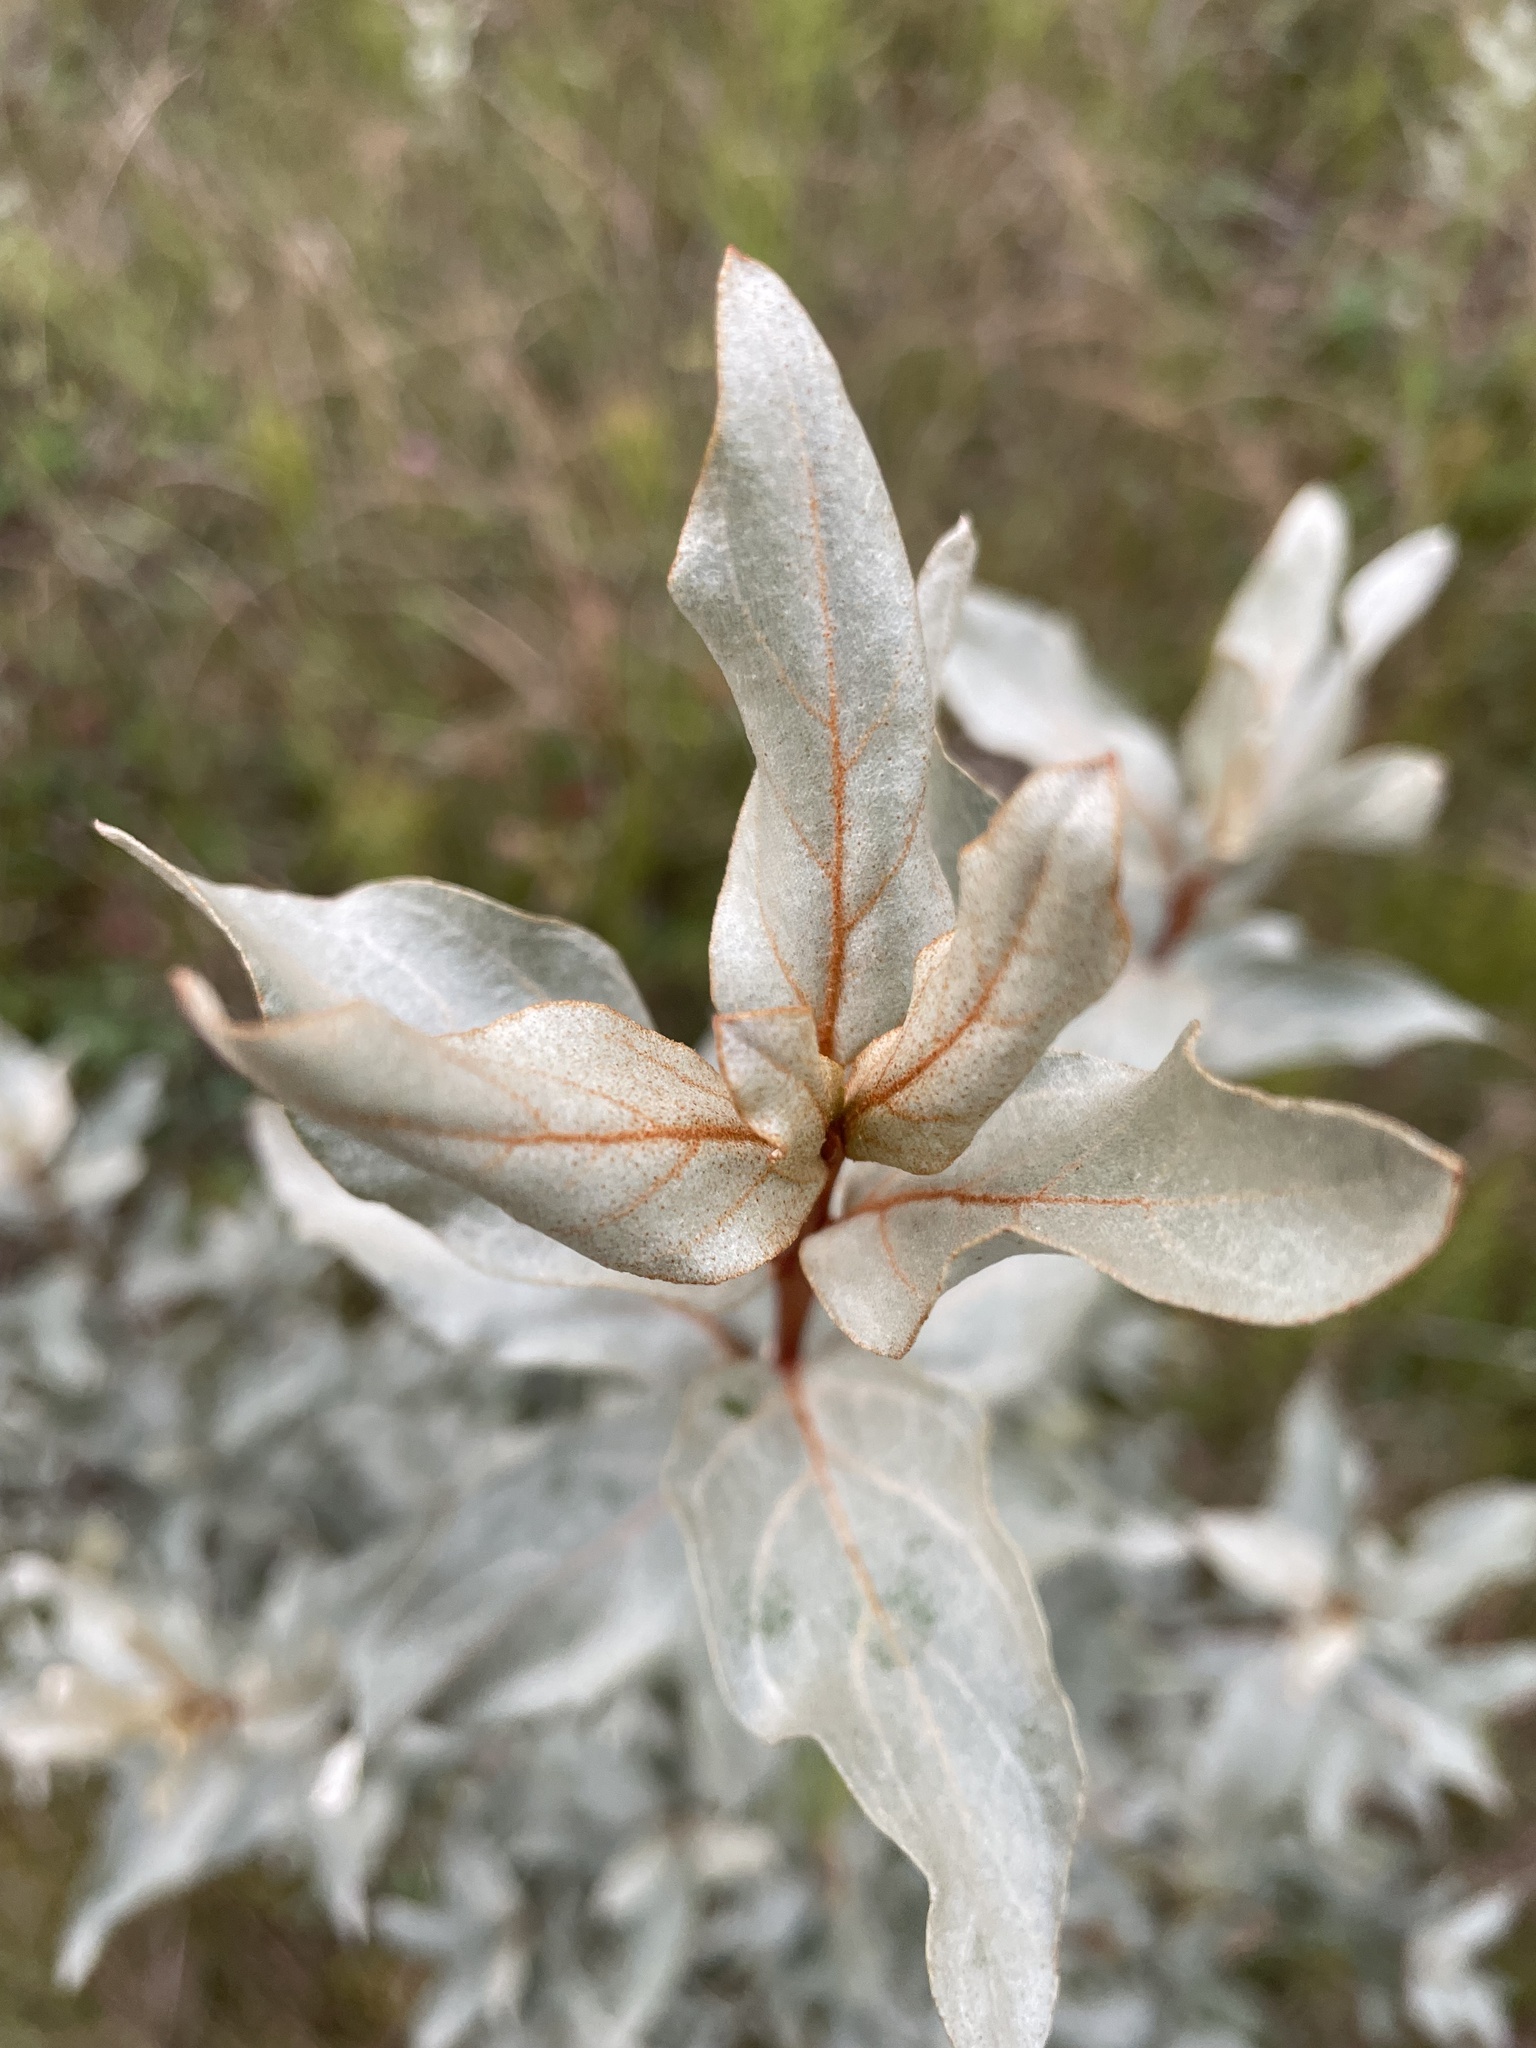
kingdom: Plantae
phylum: Tracheophyta
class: Magnoliopsida
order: Rosales
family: Elaeagnaceae
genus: Elaeagnus
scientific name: Elaeagnus commutata
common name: Silverberry
